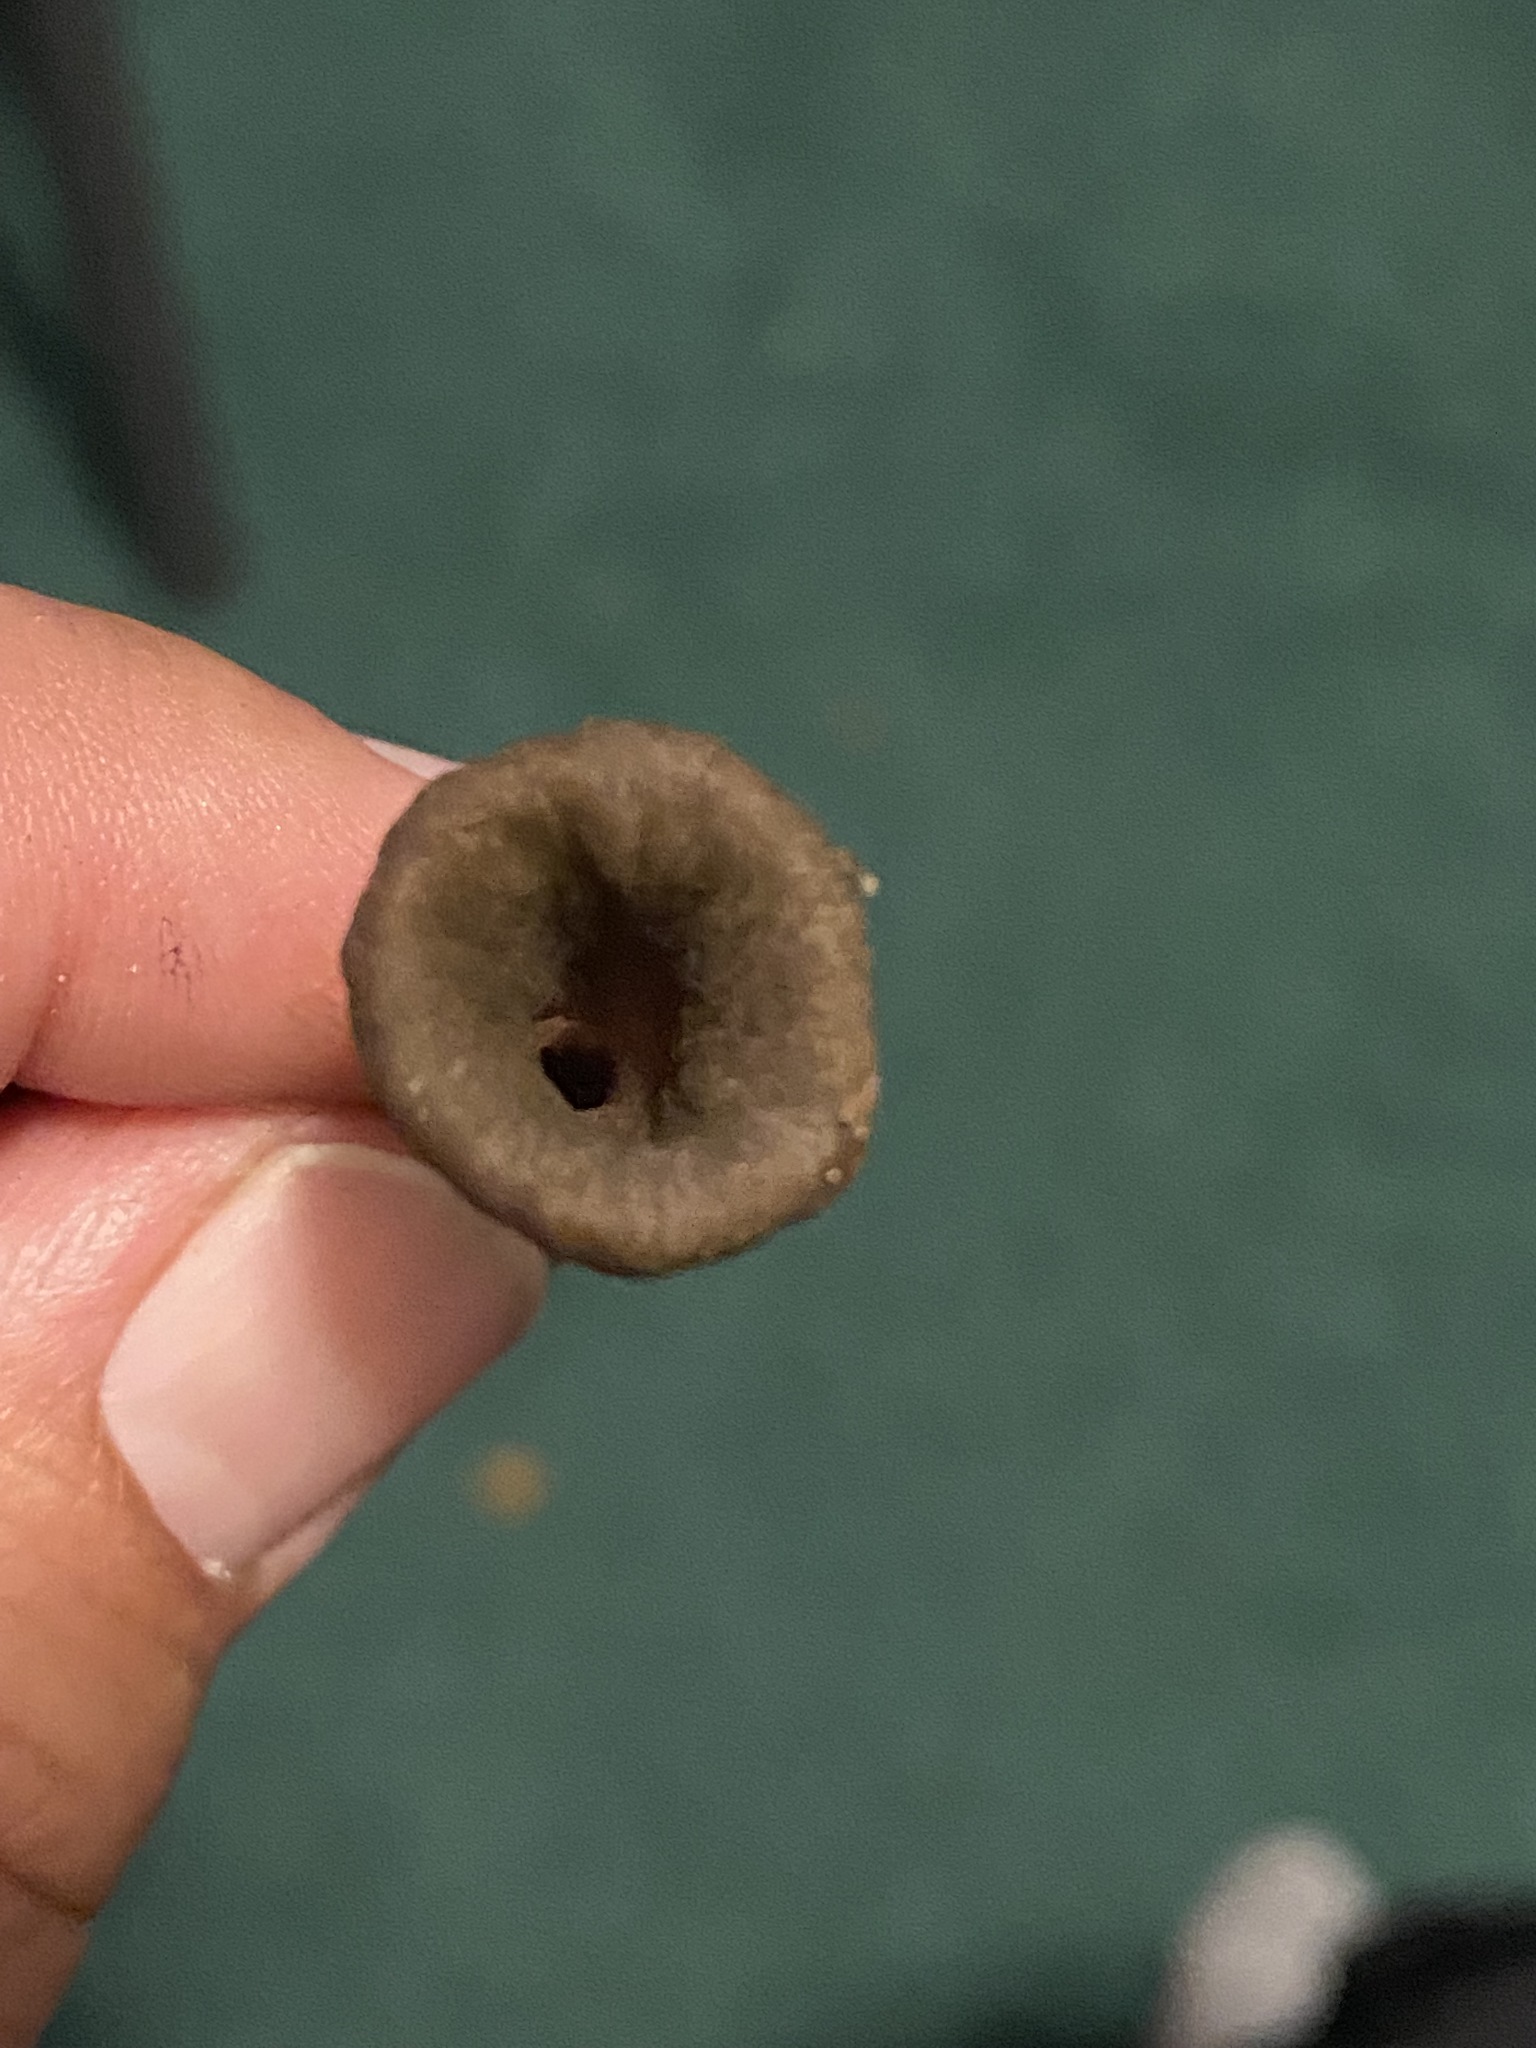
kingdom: Fungi
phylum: Basidiomycota
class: Agaricomycetes
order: Cantharellales
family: Hydnaceae
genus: Craterellus
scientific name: Craterellus cornucopioides
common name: Horn of plenty
